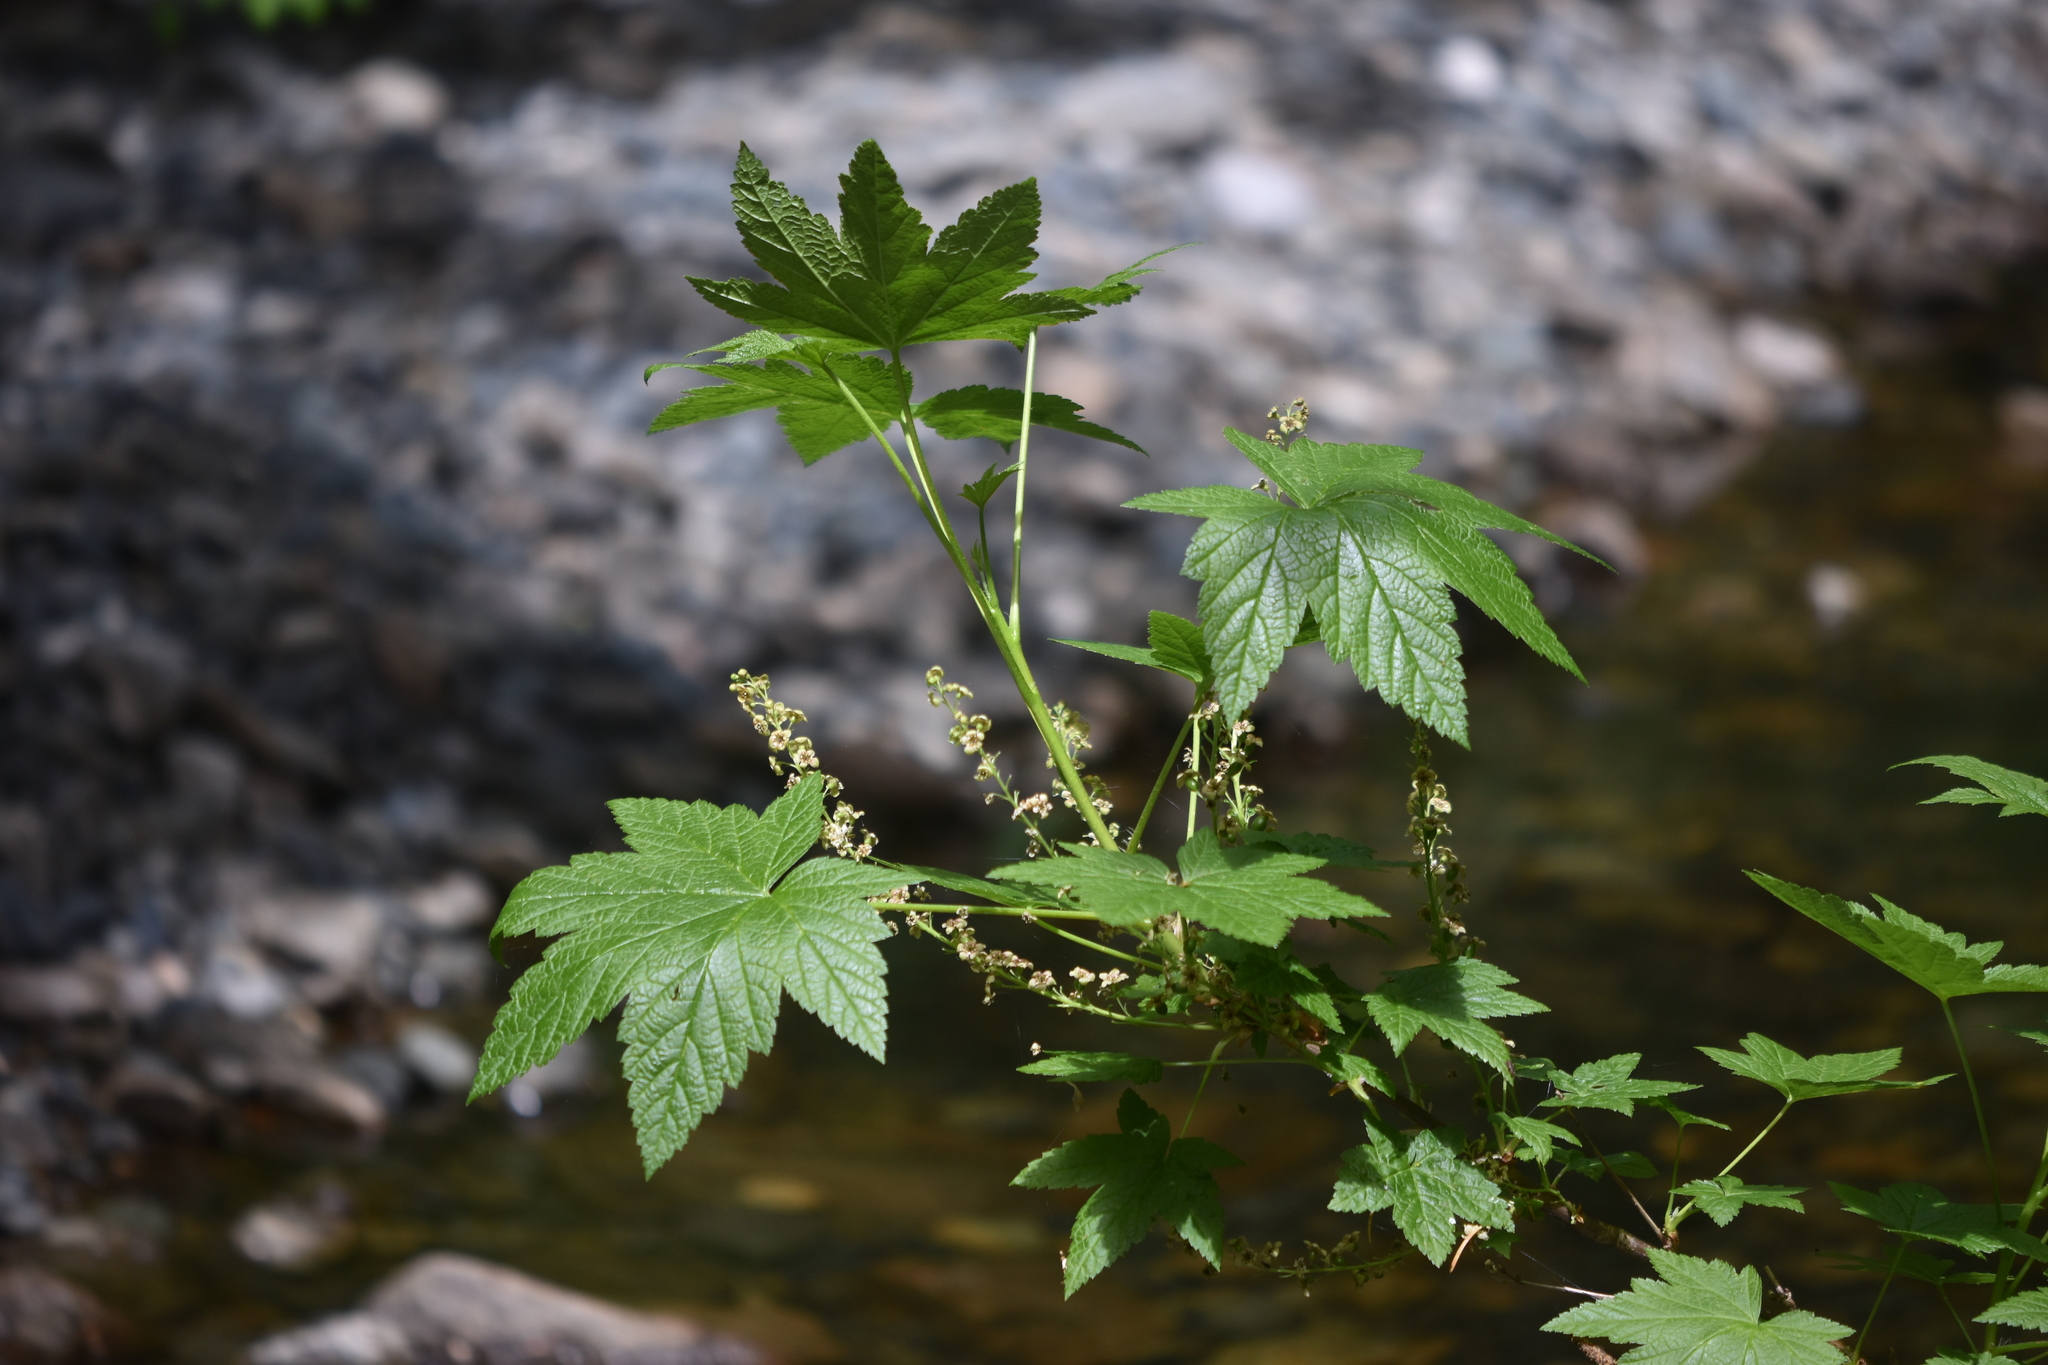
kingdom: Plantae
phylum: Tracheophyta
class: Magnoliopsida
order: Saxifragales
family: Grossulariaceae
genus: Ribes
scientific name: Ribes bracteosum
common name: California black currant
